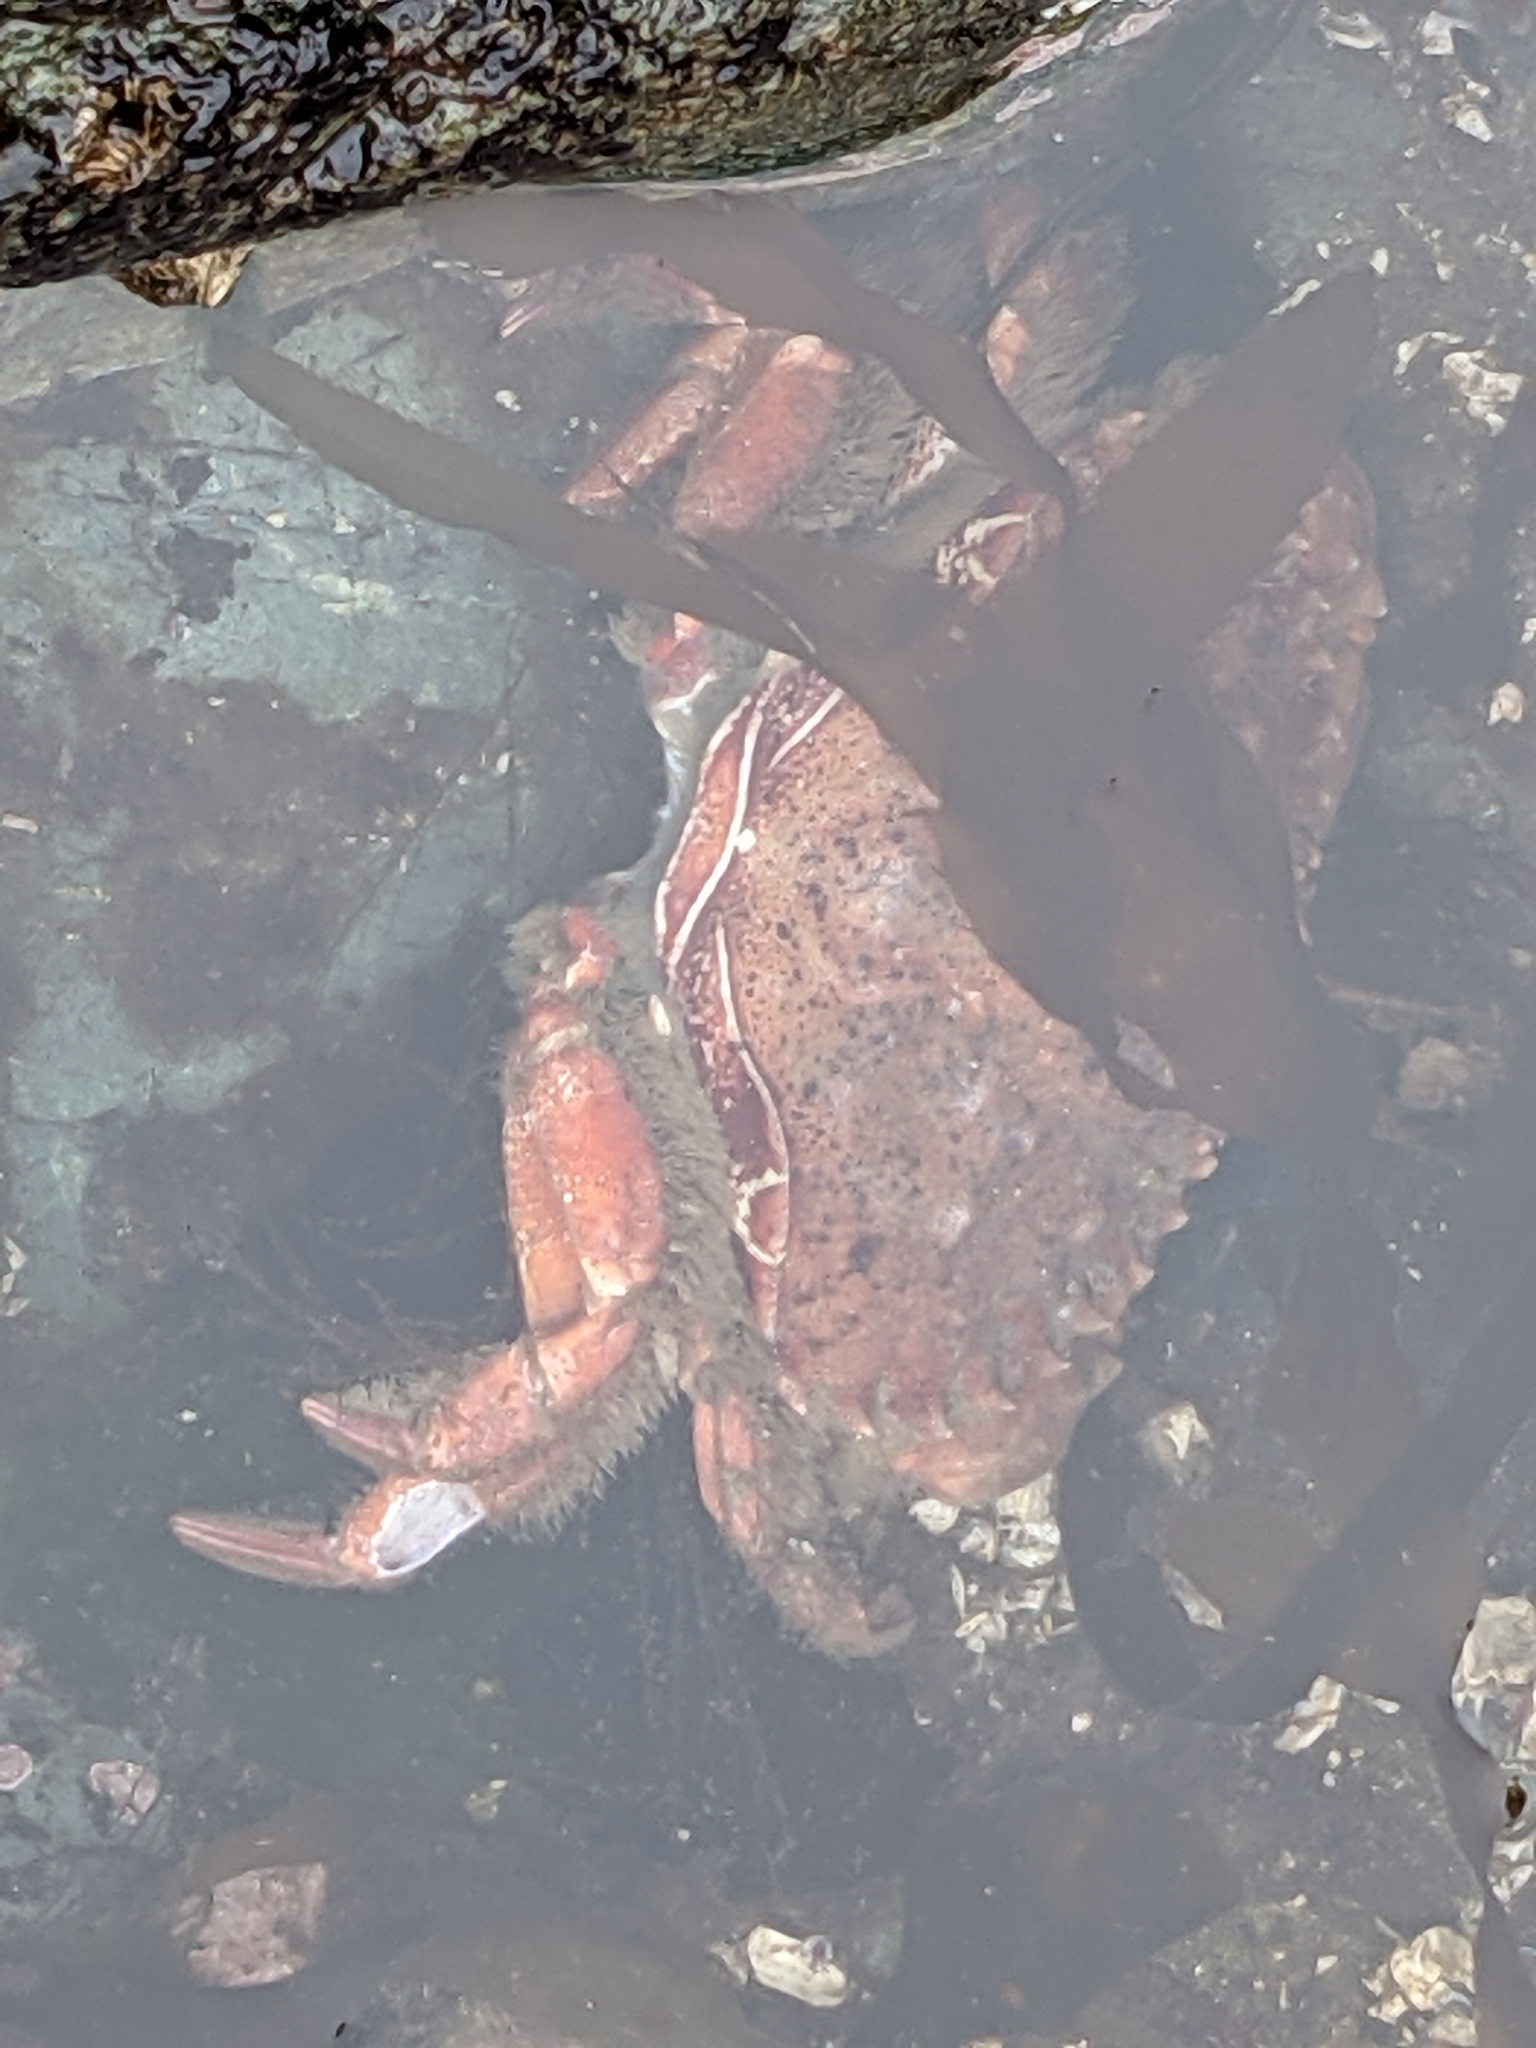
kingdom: Animalia
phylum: Arthropoda
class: Malacostraca
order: Decapoda
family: Cancridae
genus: Romaleon
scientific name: Romaleon antennarium
